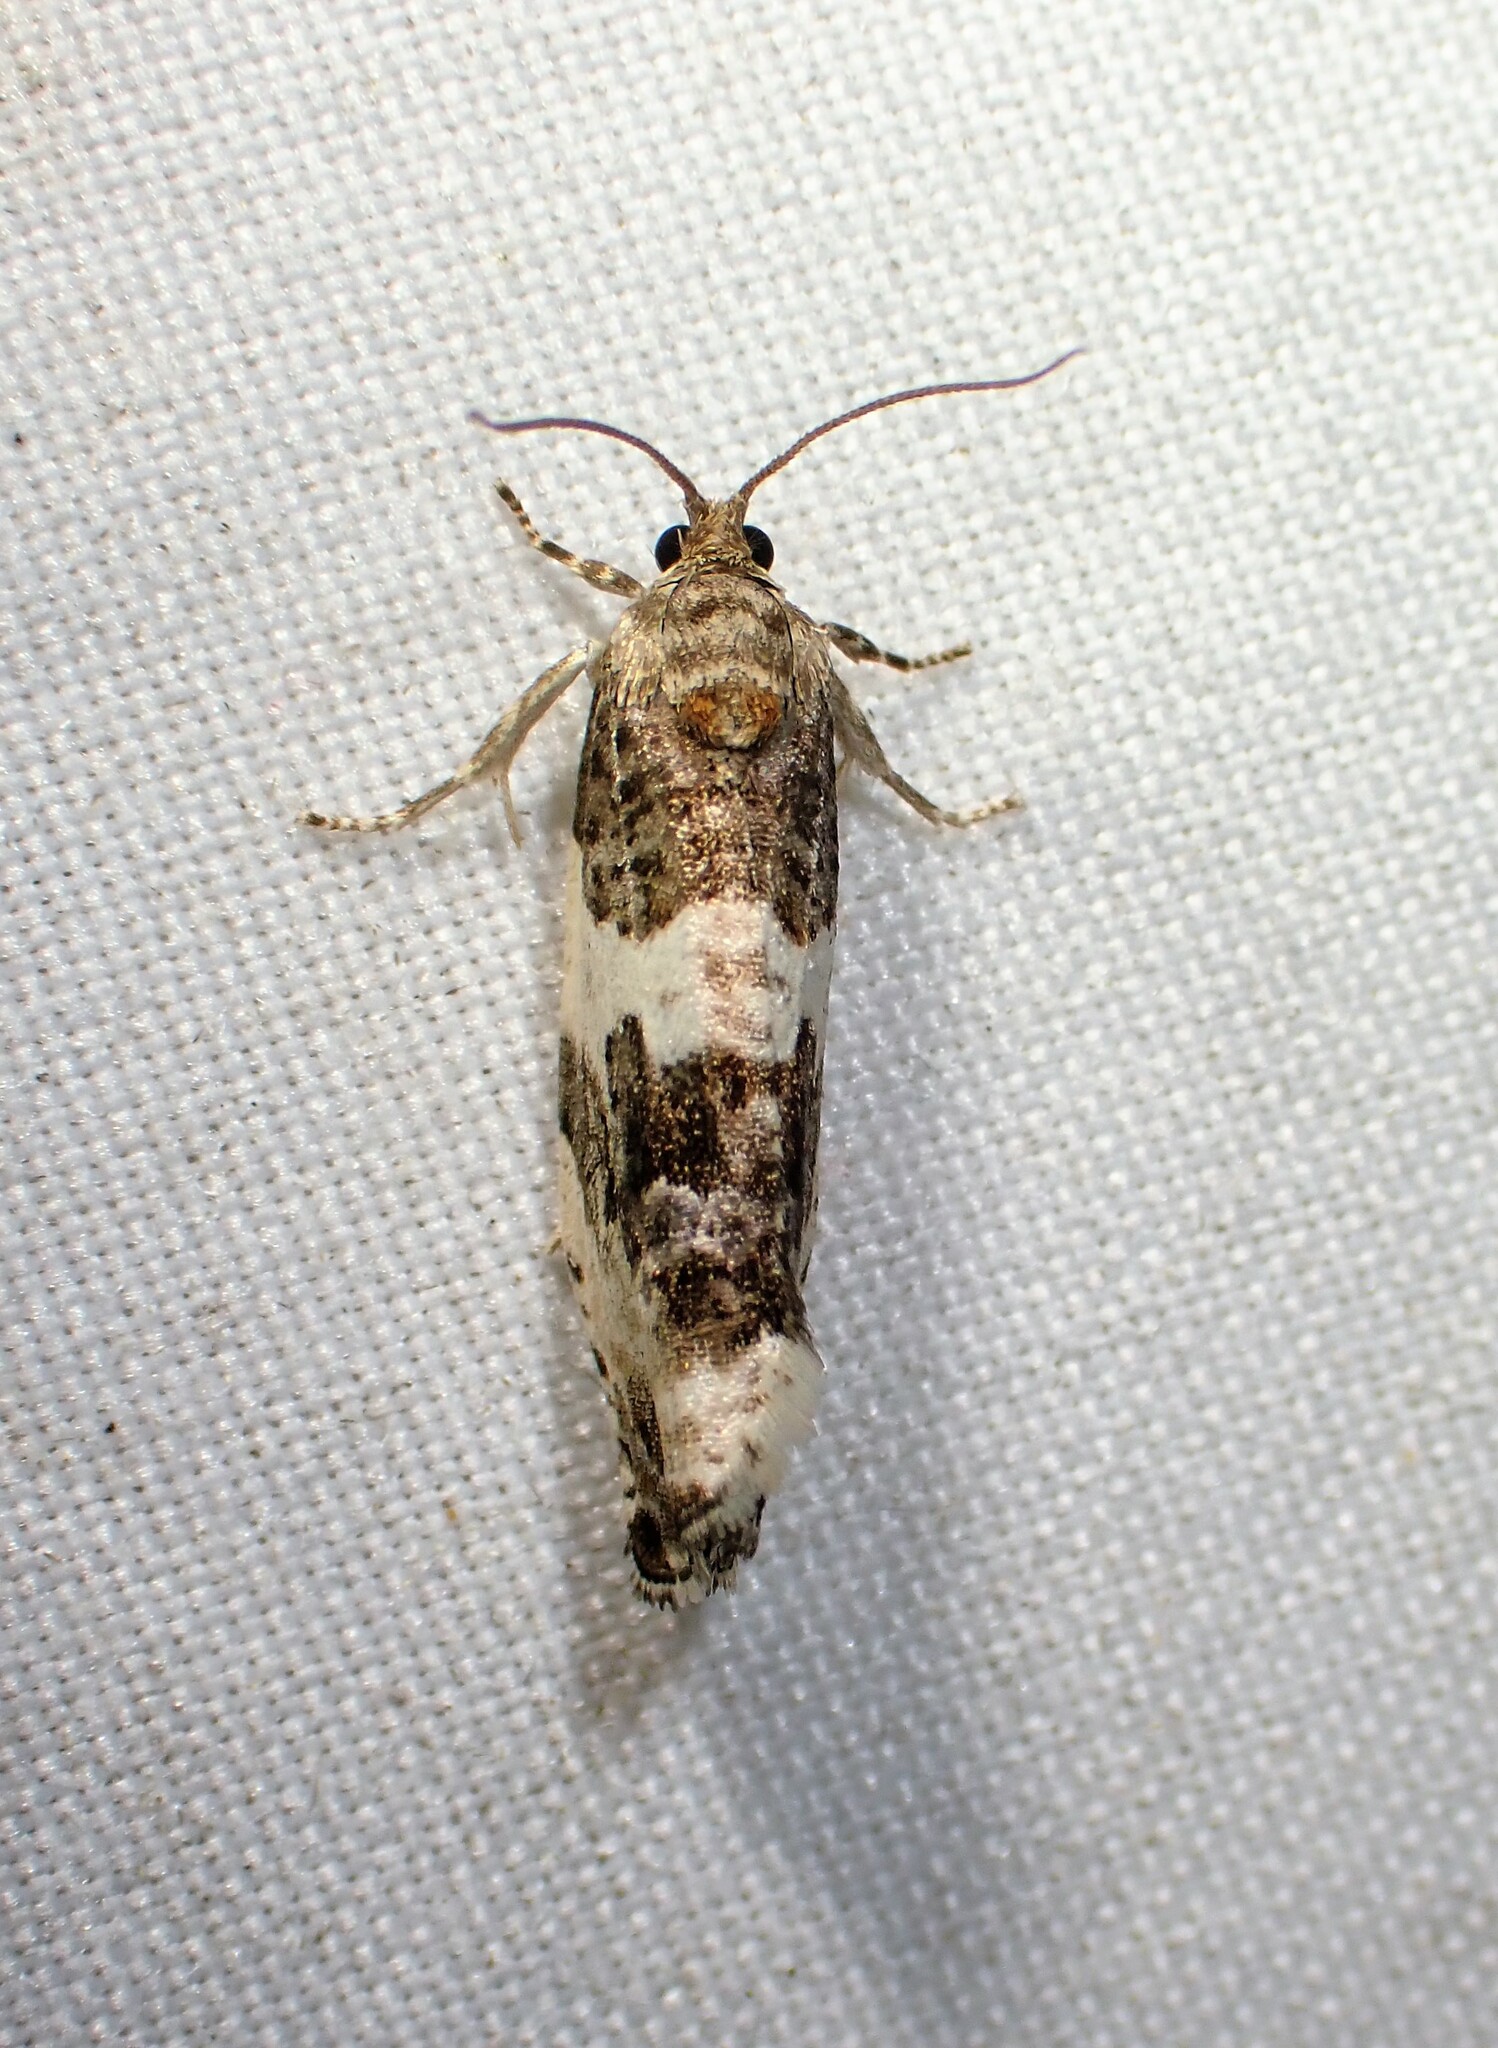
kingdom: Animalia
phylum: Arthropoda
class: Insecta
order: Lepidoptera
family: Tortricidae
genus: Pseudosciaphila
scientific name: Pseudosciaphila duplex
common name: Poplar leafroller moth
